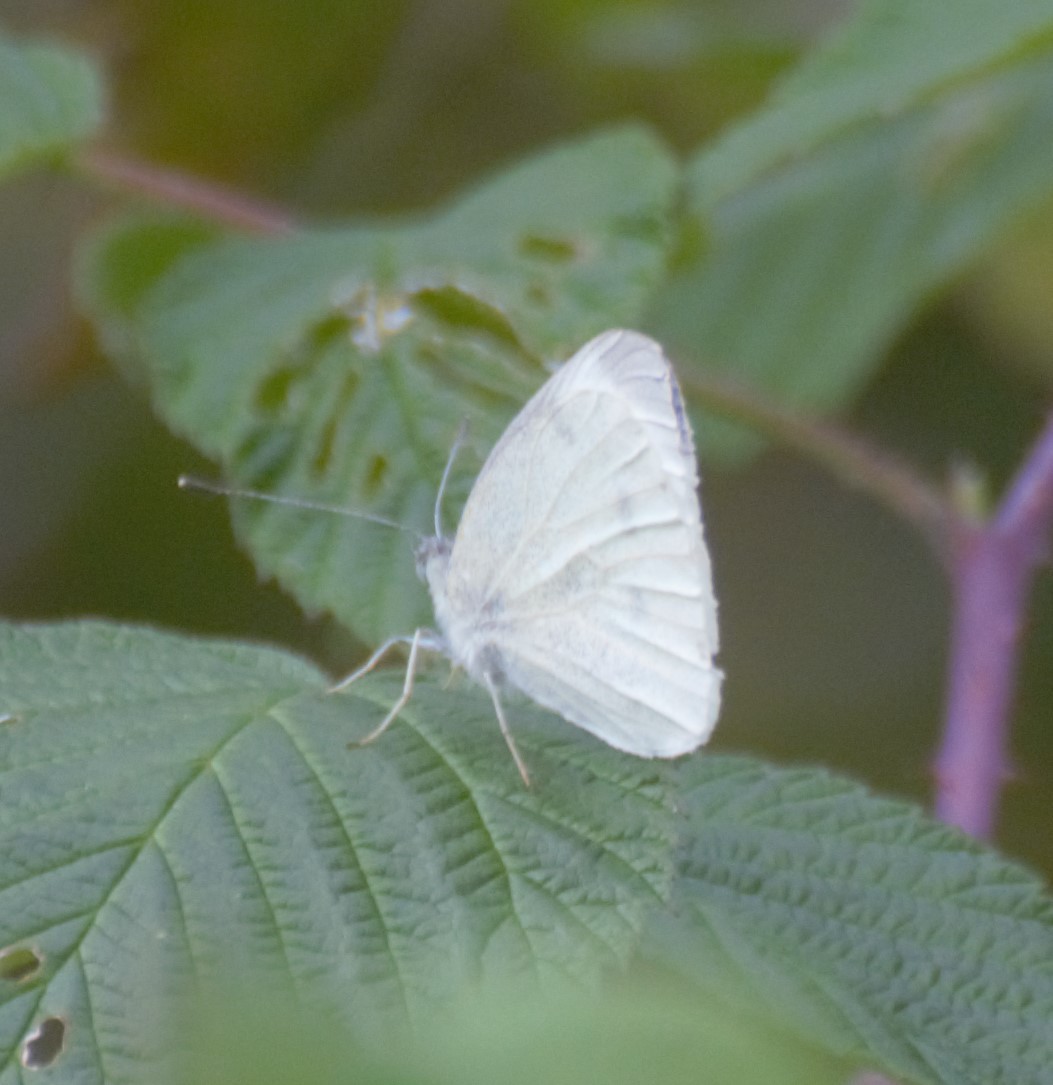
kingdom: Animalia
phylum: Arthropoda
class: Insecta
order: Lepidoptera
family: Pieridae
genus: Pieris
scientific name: Pieris rapae
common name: Small white
